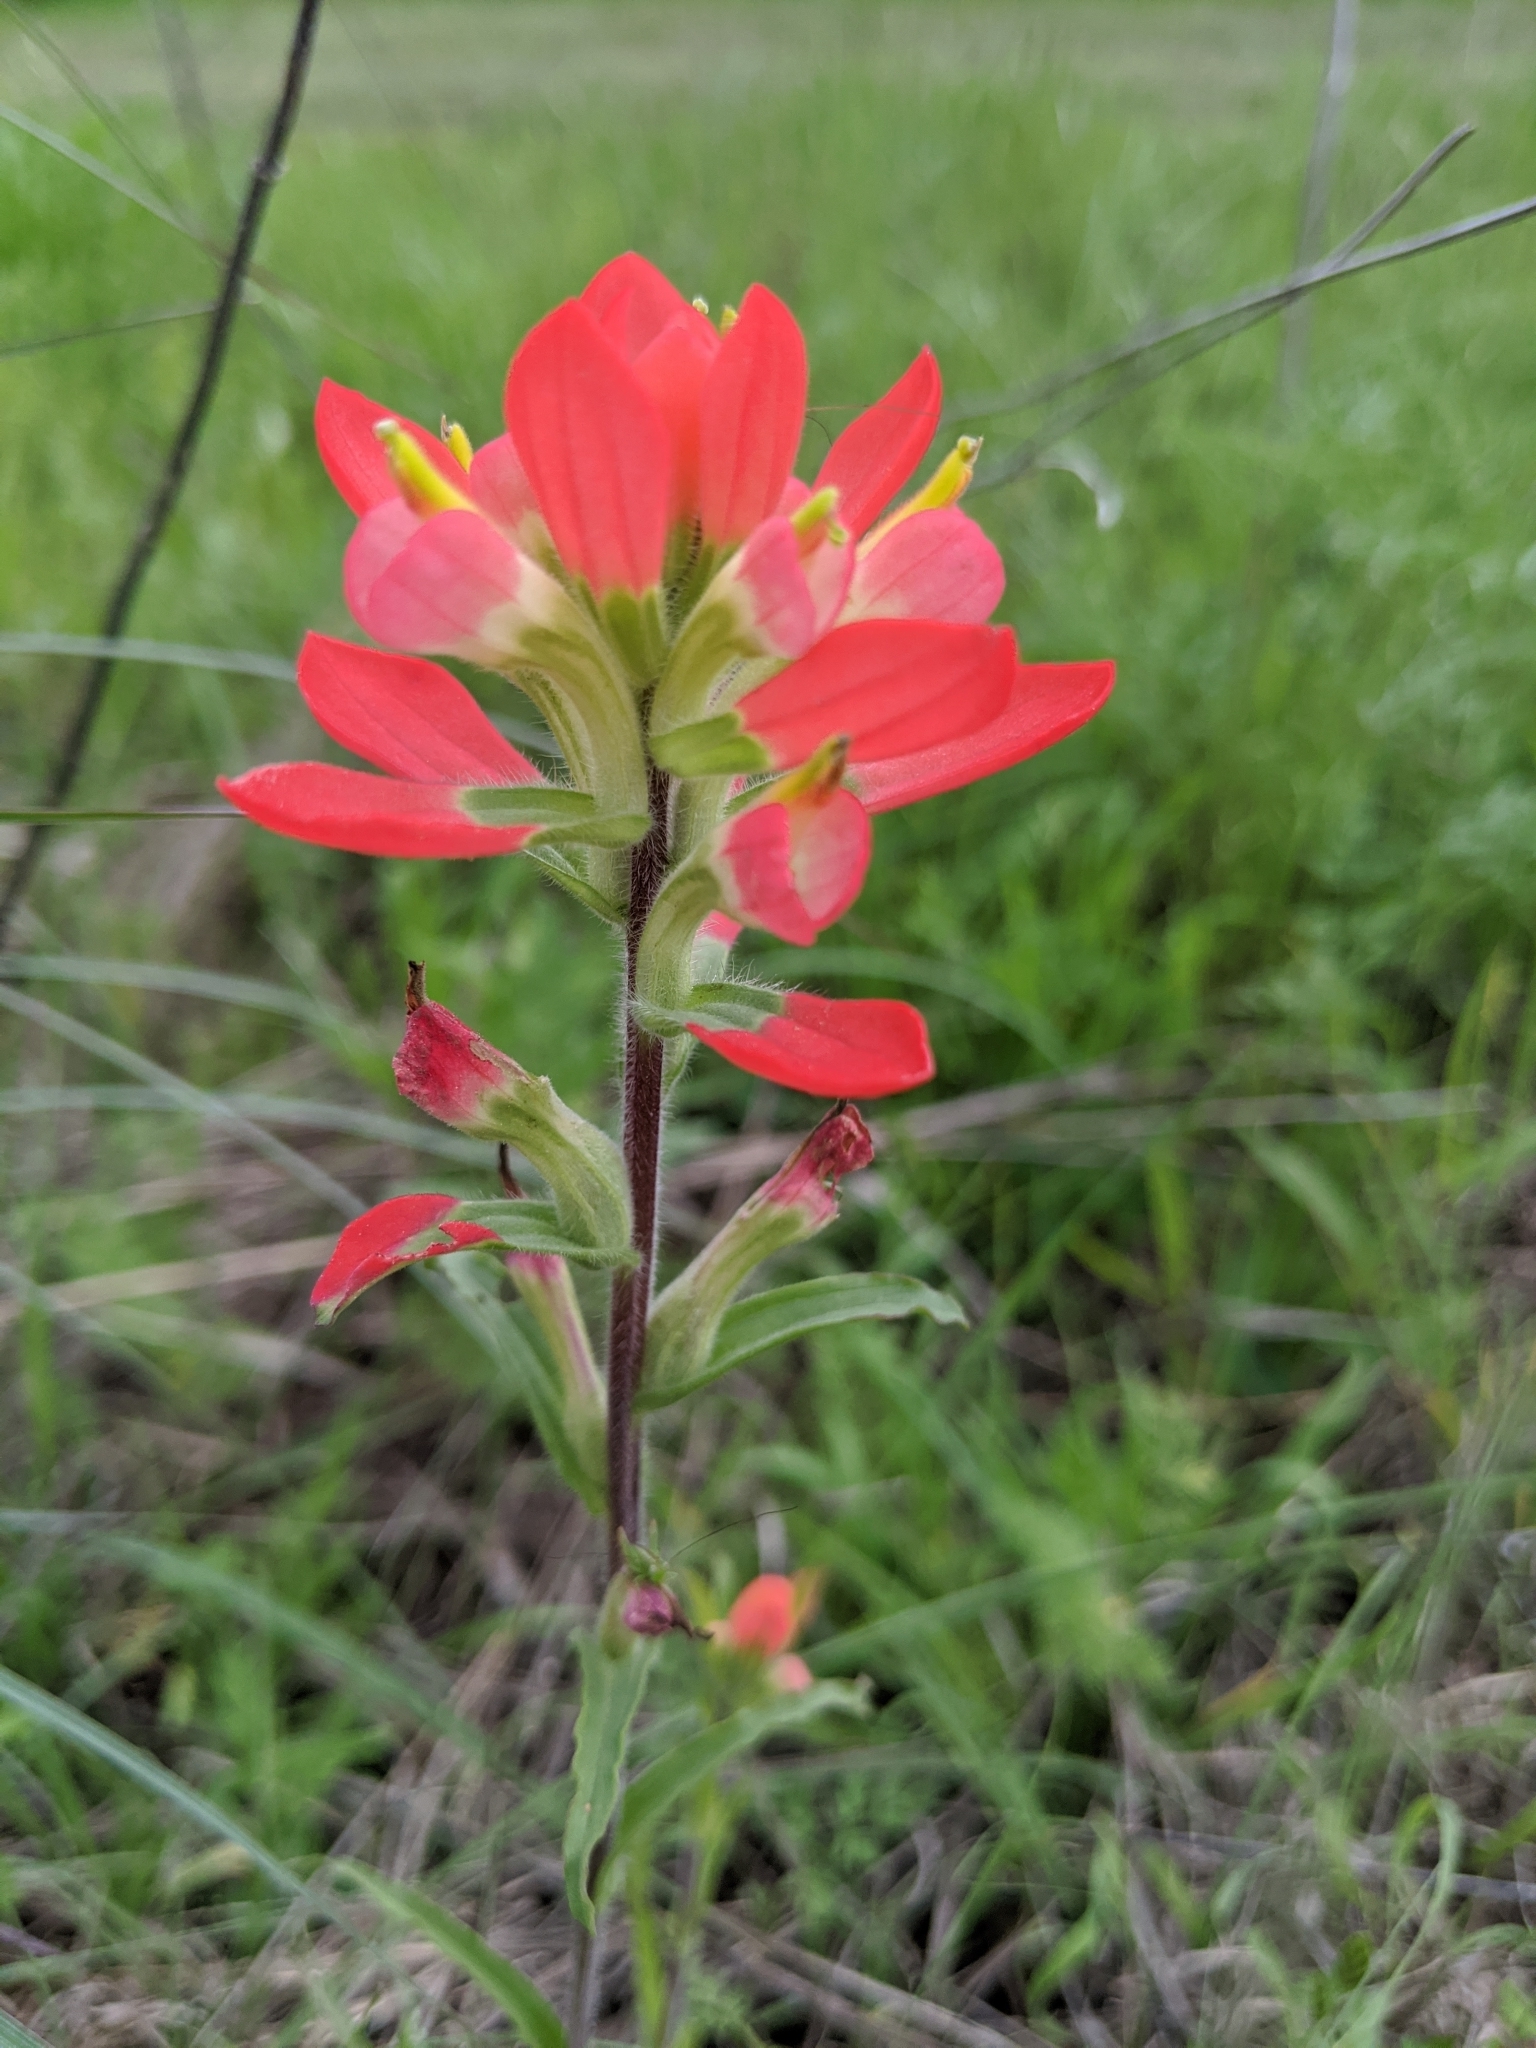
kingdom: Plantae
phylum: Tracheophyta
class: Magnoliopsida
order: Lamiales
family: Orobanchaceae
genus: Castilleja
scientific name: Castilleja indivisa
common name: Texas paintbrush
